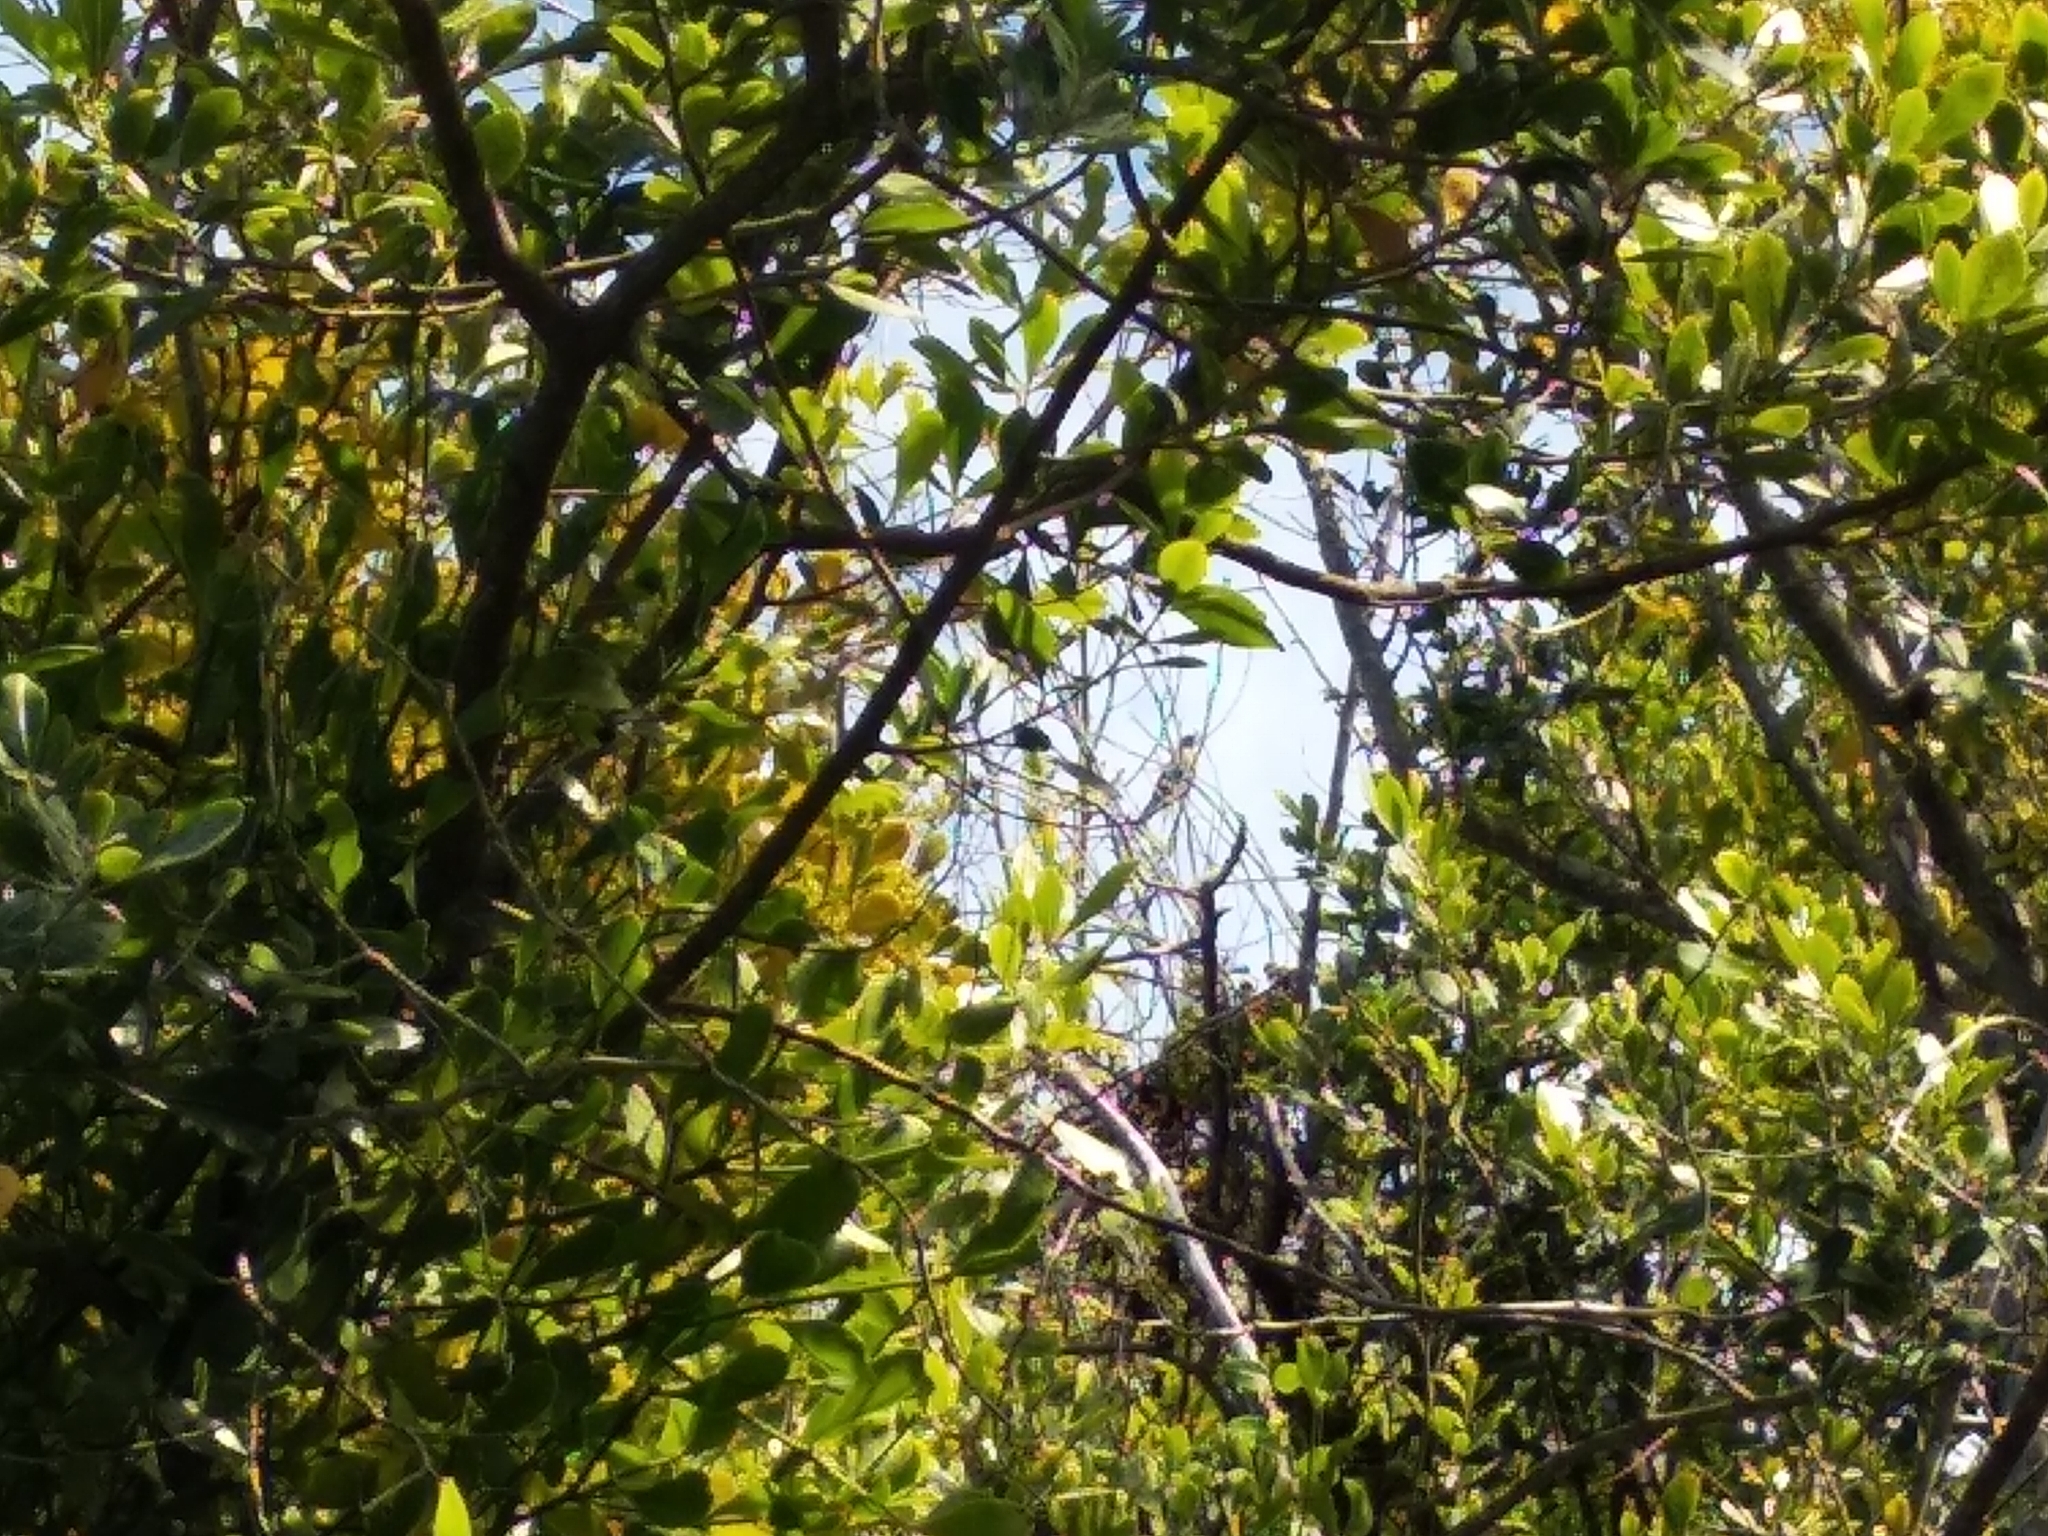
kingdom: Animalia
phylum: Chordata
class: Aves
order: Passeriformes
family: Pycnonotidae
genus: Andropadus
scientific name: Andropadus importunus
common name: Sombre greenbul
